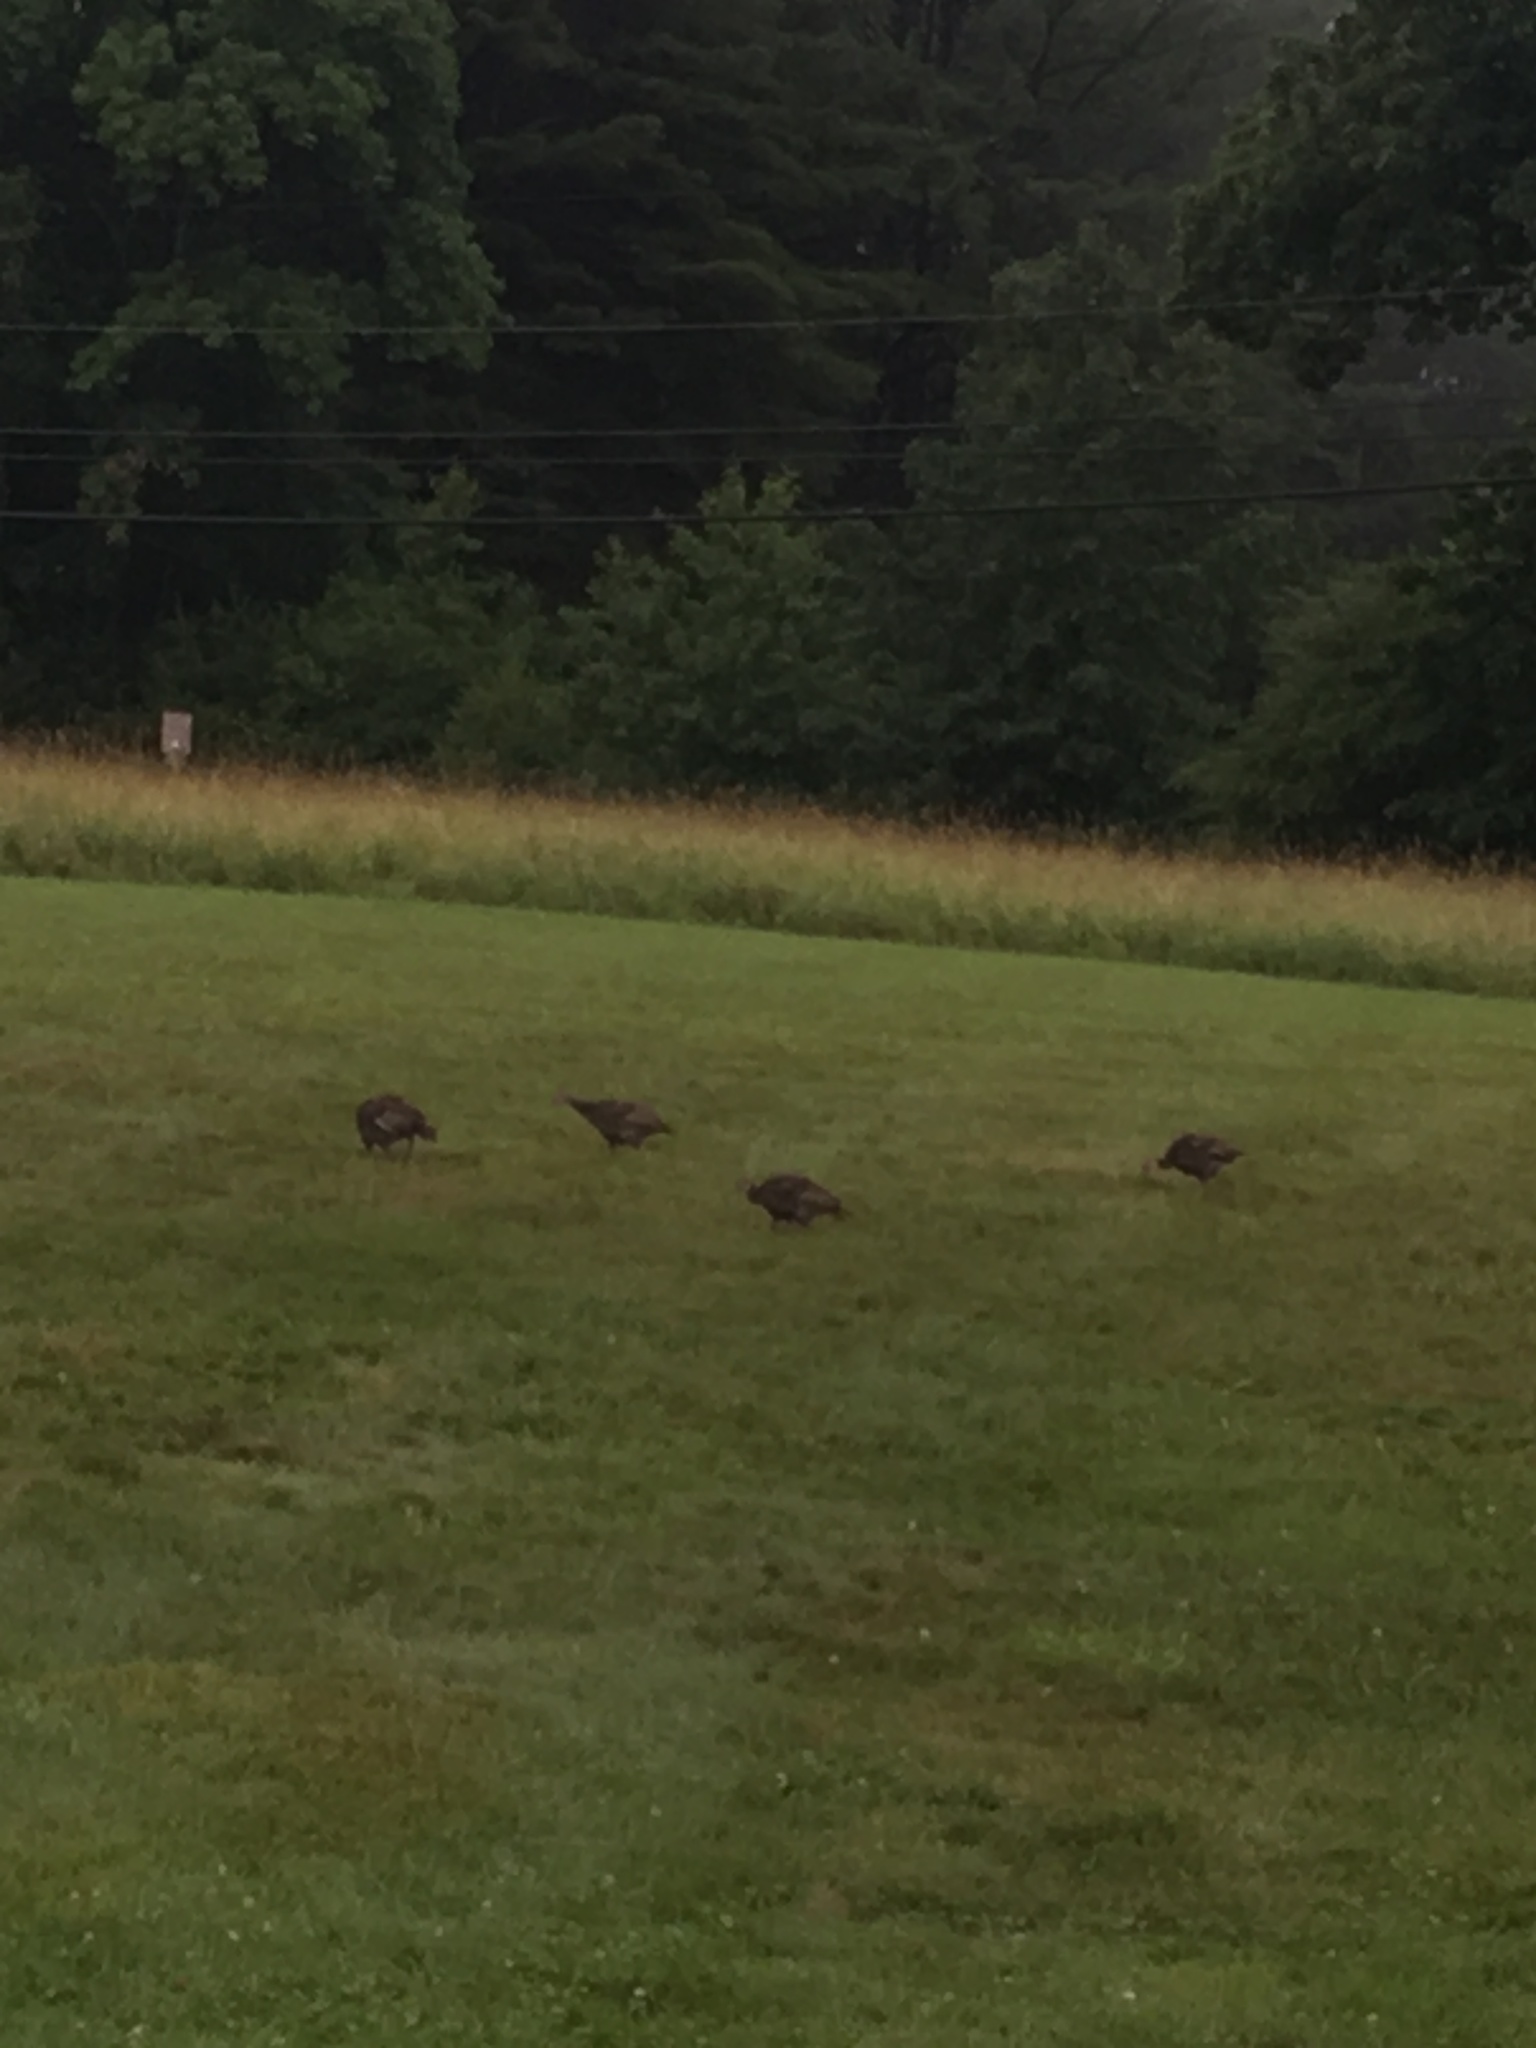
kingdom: Animalia
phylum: Chordata
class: Aves
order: Galliformes
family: Phasianidae
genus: Meleagris
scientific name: Meleagris gallopavo
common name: Wild turkey
